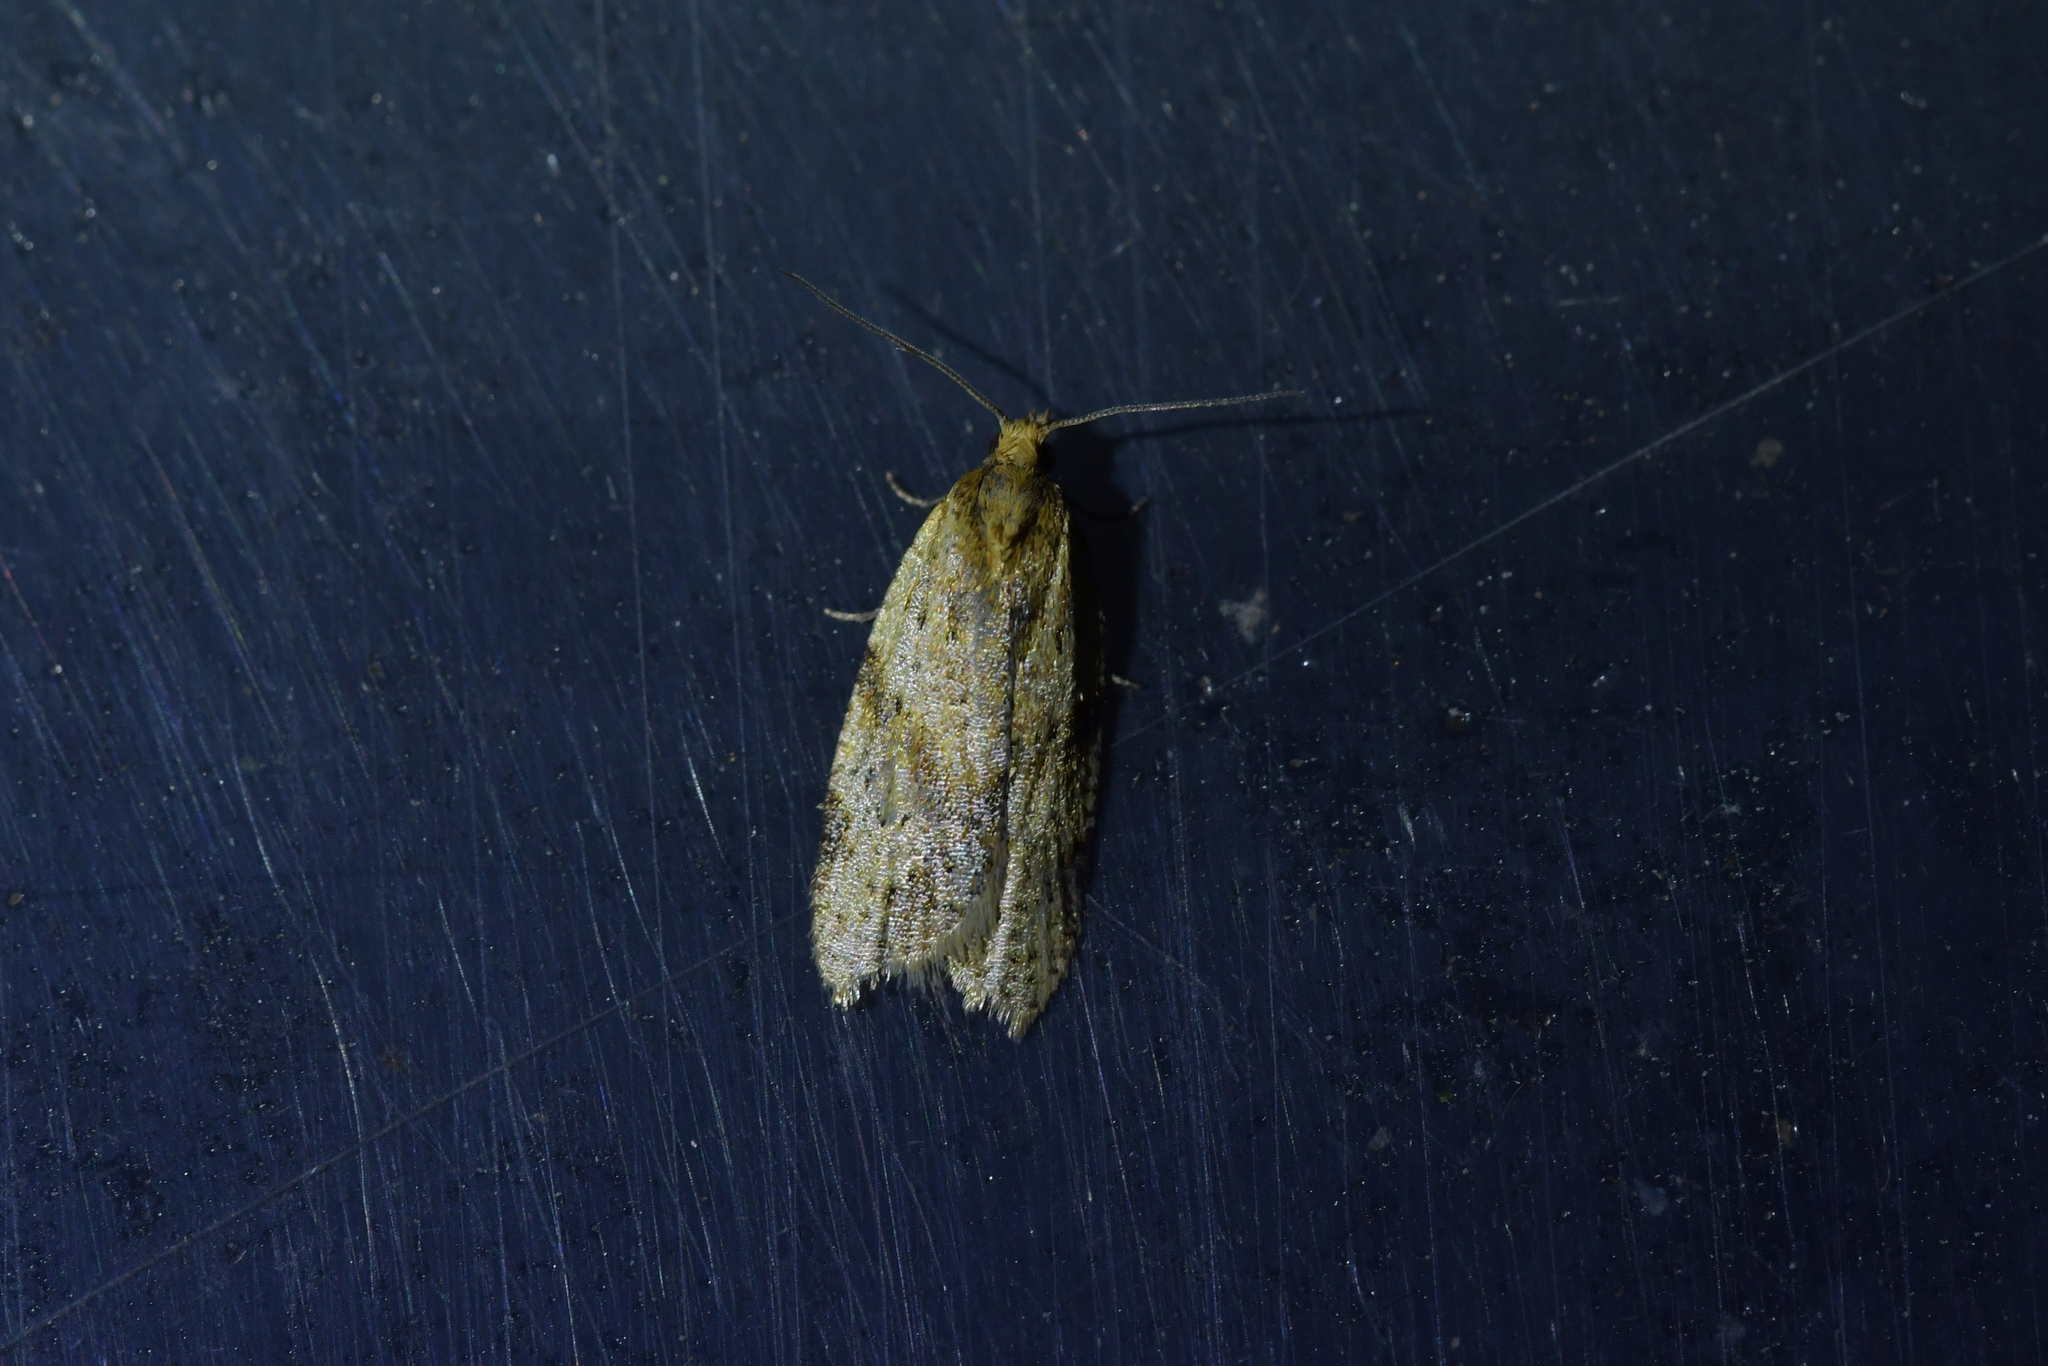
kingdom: Animalia
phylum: Arthropoda
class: Insecta
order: Lepidoptera
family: Tortricidae
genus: Clepsis
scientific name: Clepsis
